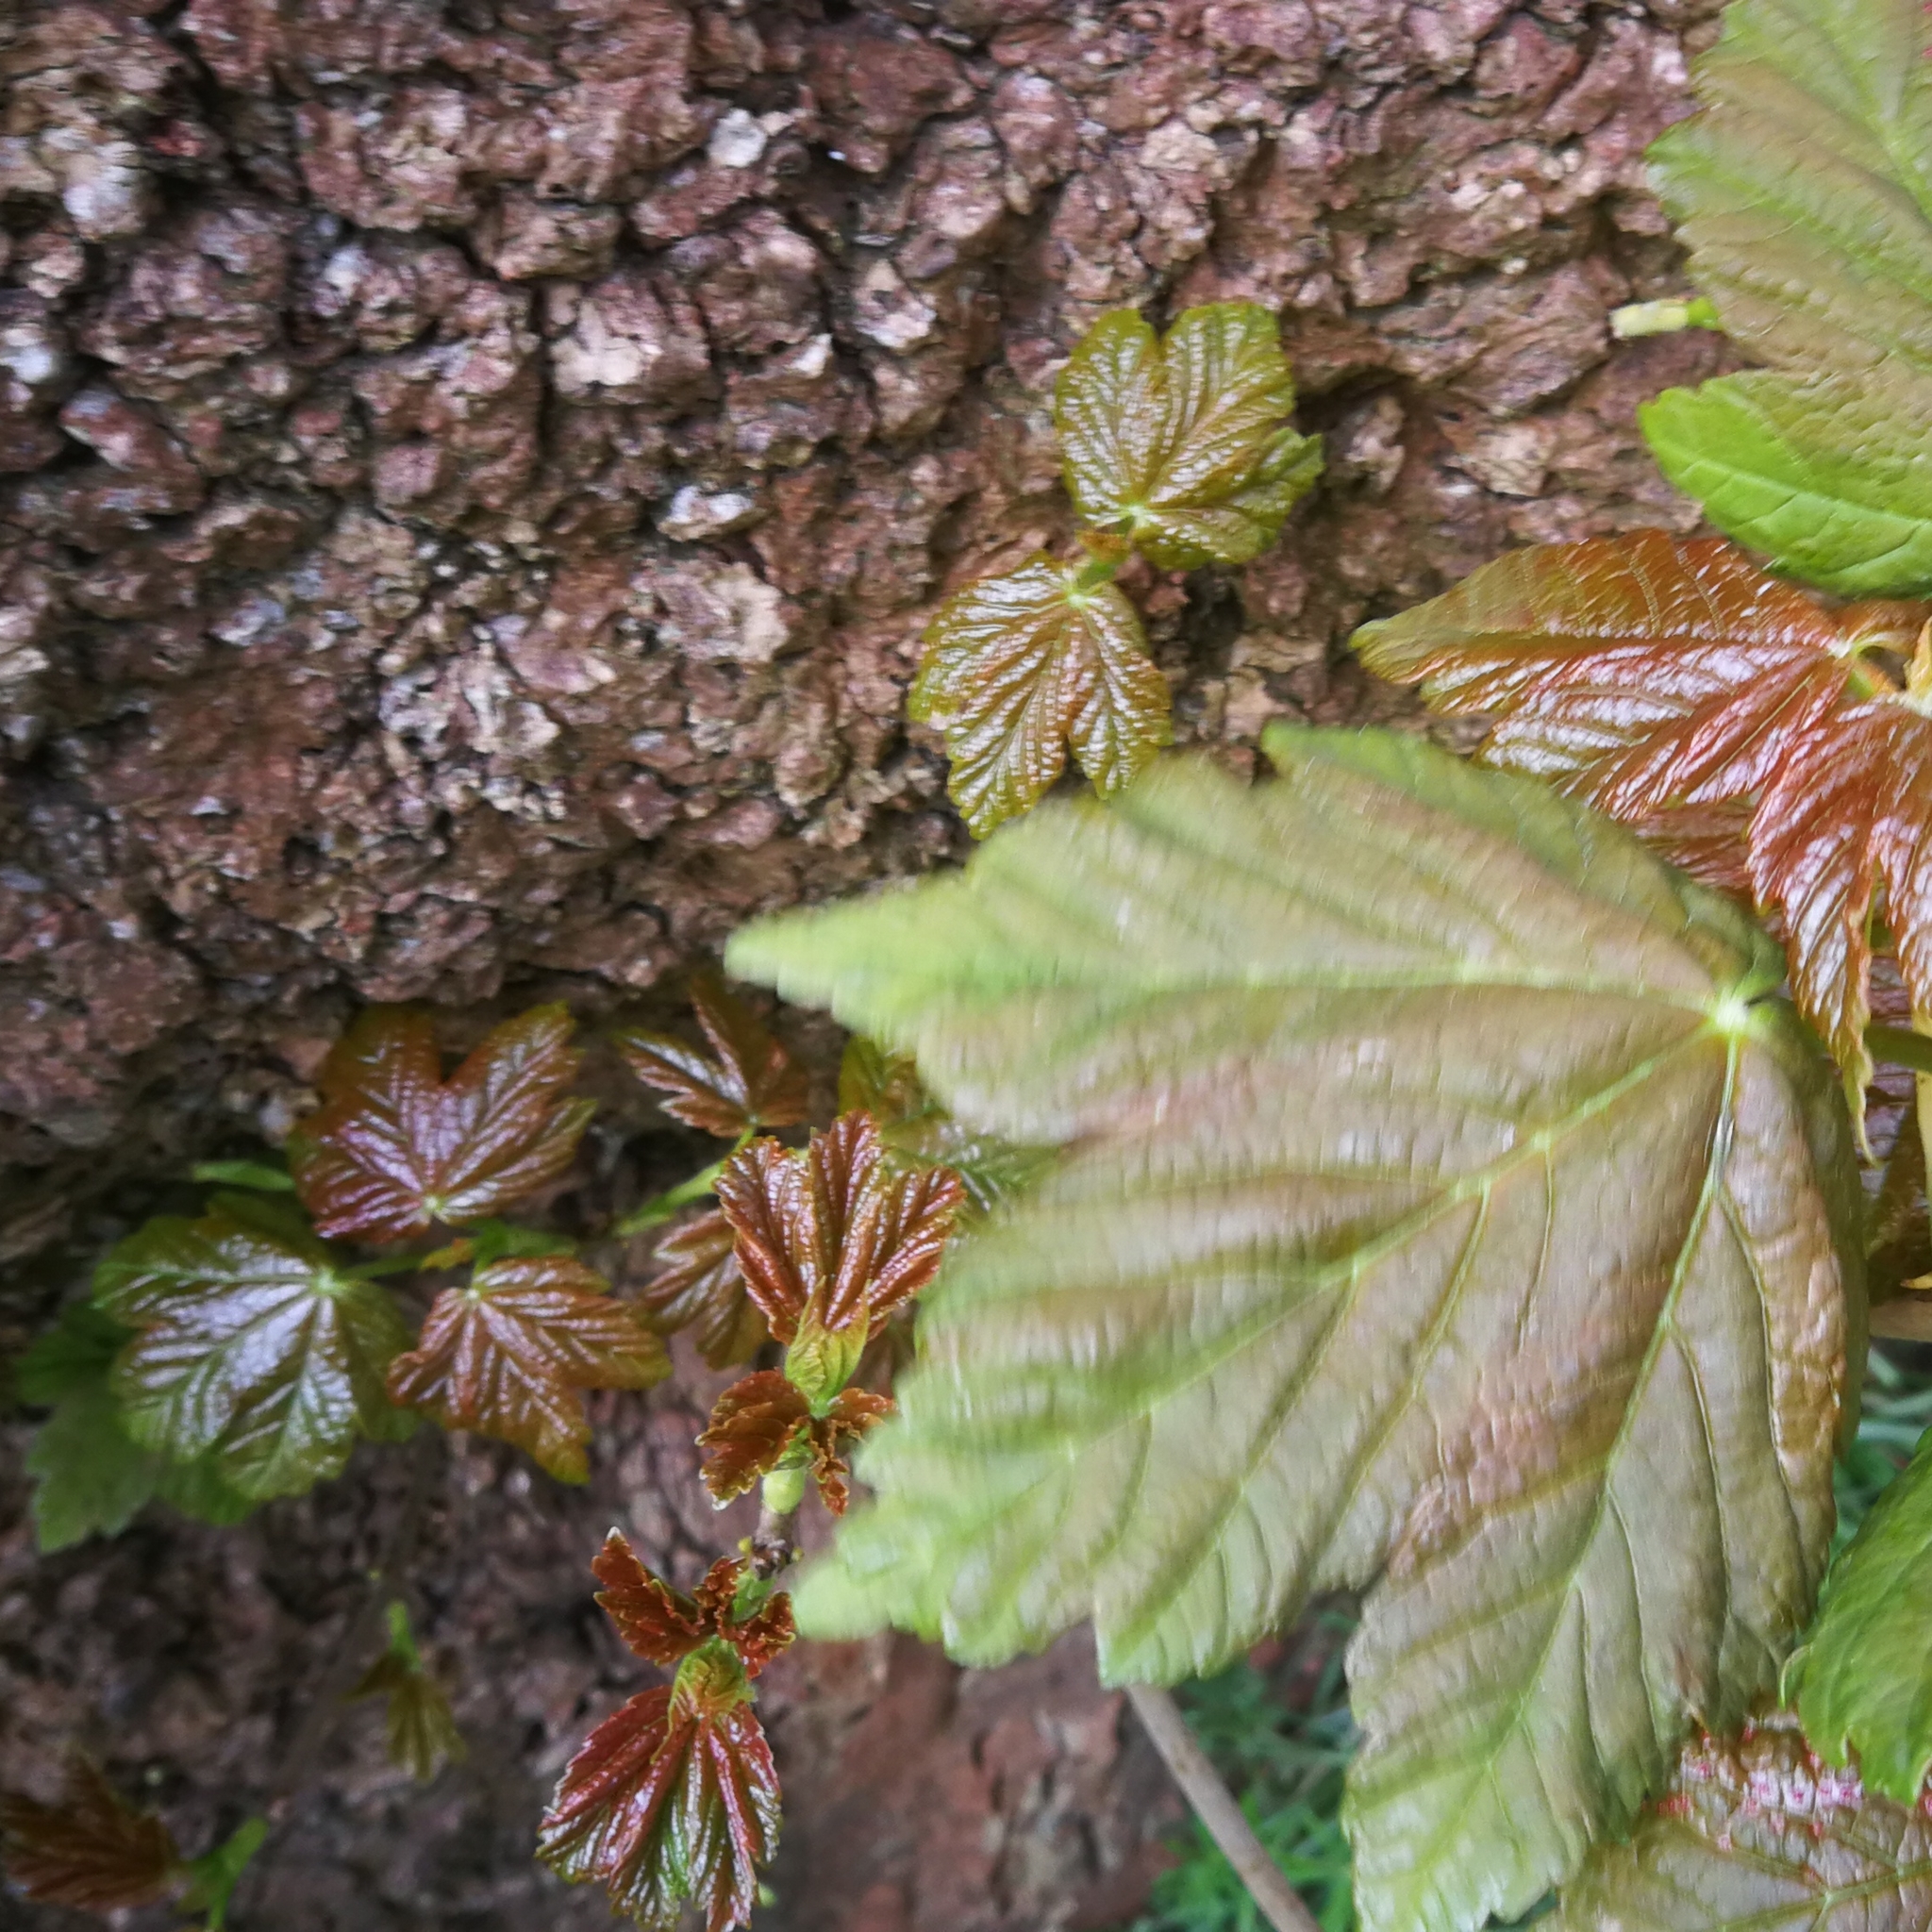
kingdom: Plantae
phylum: Tracheophyta
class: Magnoliopsida
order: Sapindales
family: Sapindaceae
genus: Acer
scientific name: Acer pseudoplatanus
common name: Sycamore
